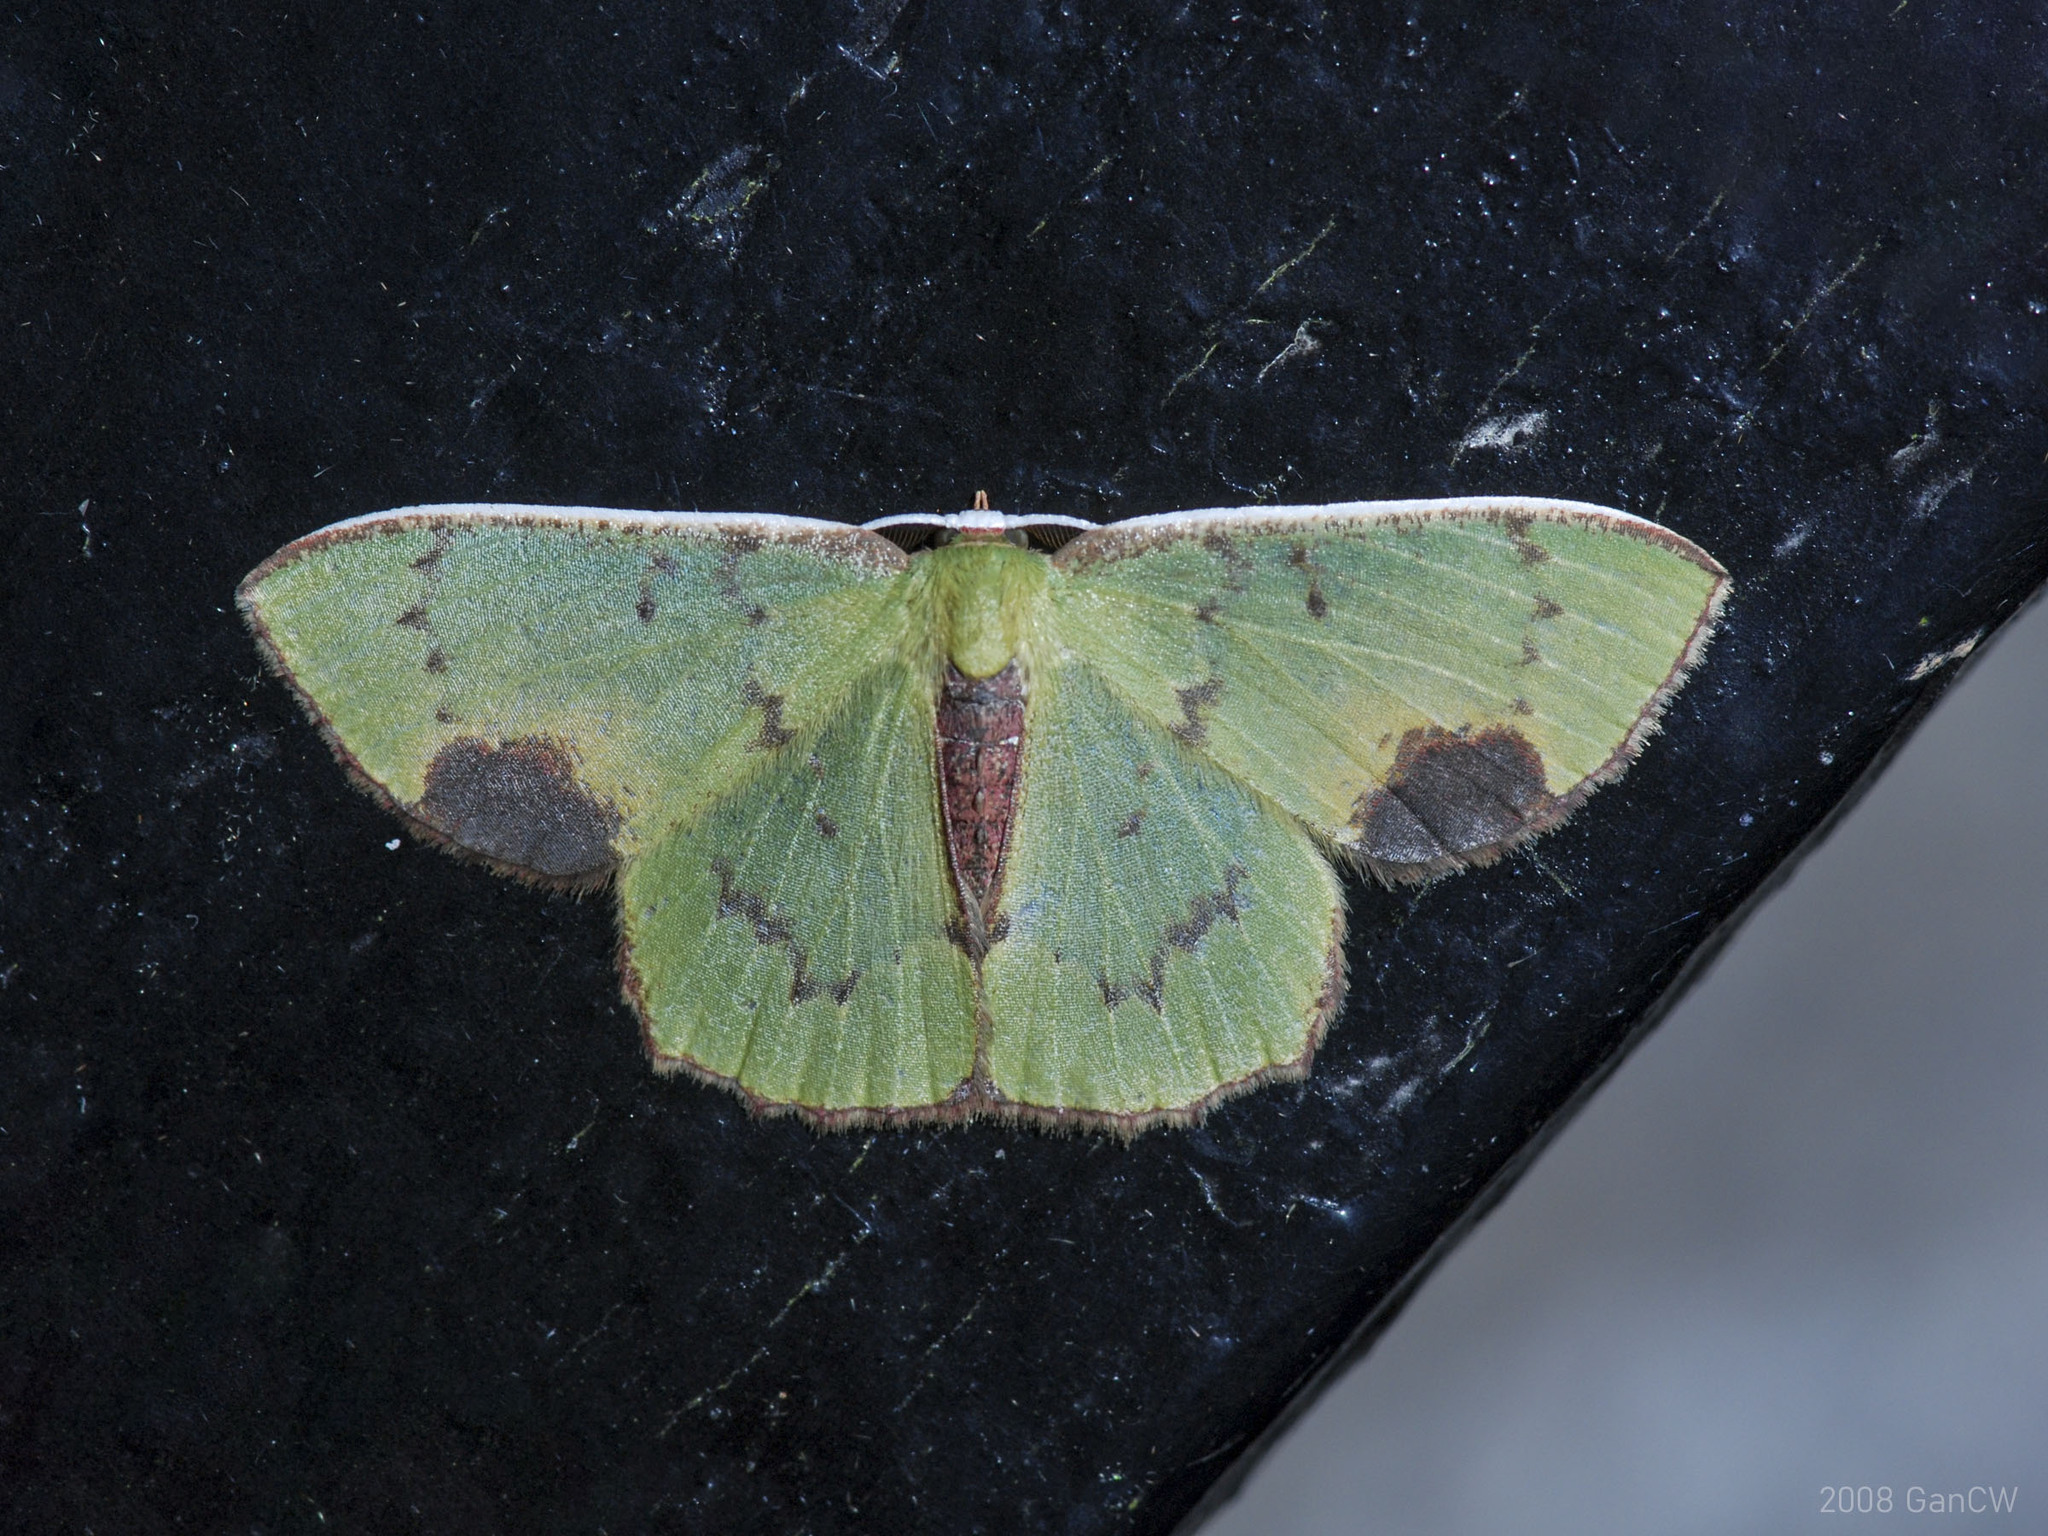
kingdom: Animalia
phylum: Arthropoda
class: Insecta
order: Lepidoptera
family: Geometridae
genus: Spaniocentra
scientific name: Spaniocentra hollowayi
